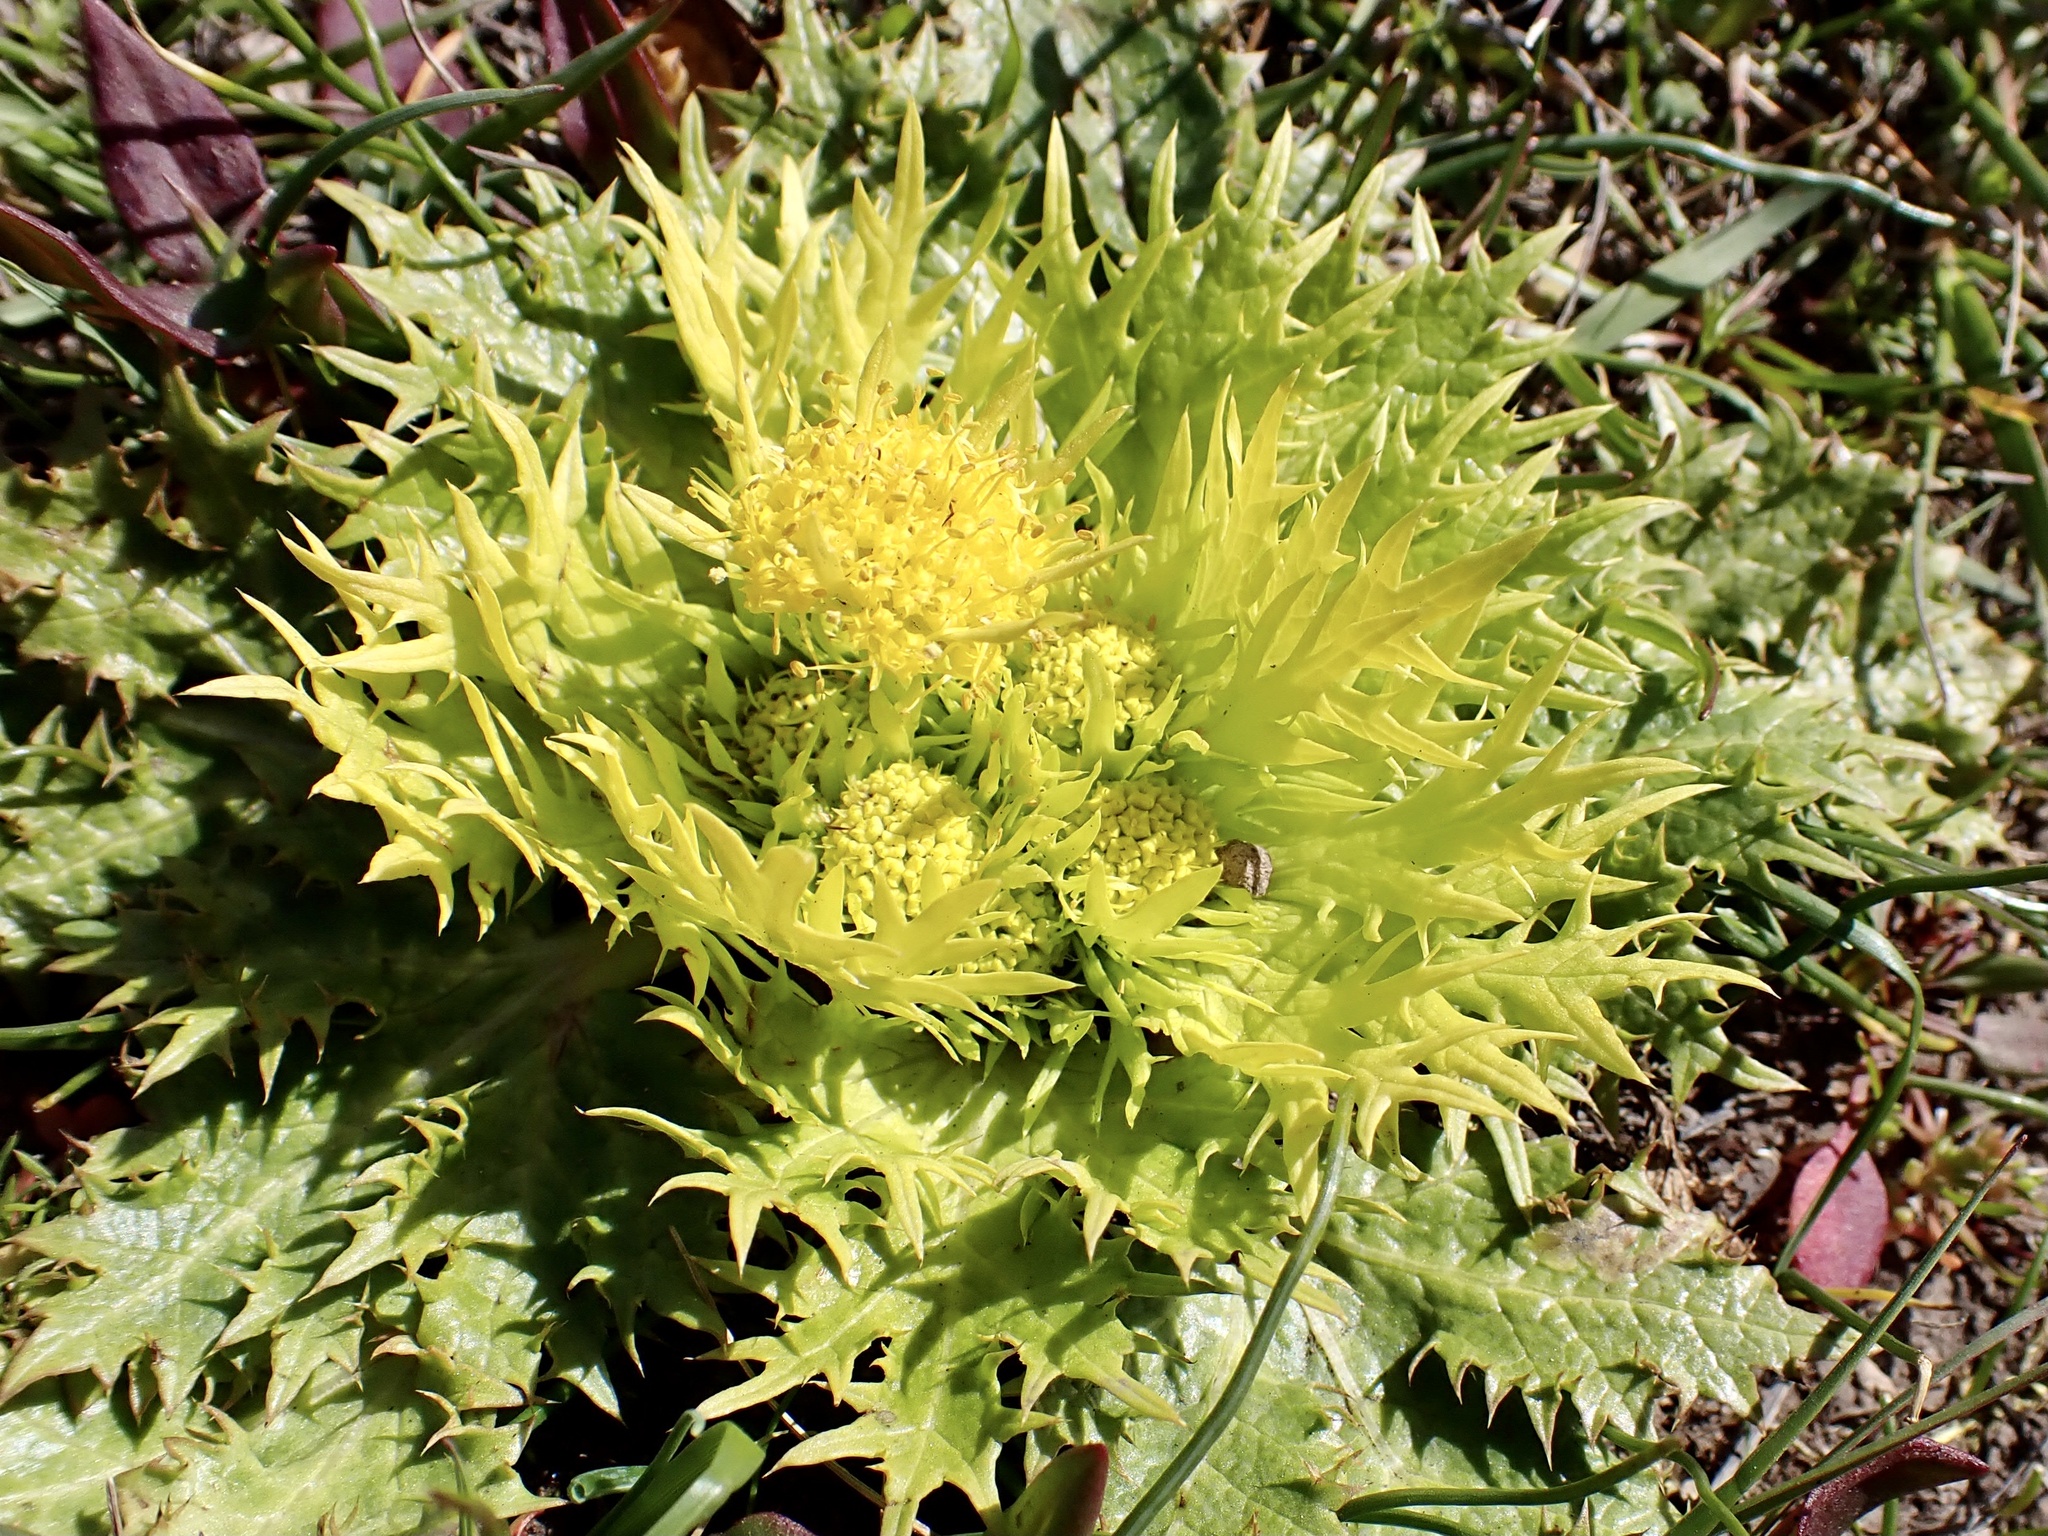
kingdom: Plantae
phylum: Tracheophyta
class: Magnoliopsida
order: Apiales
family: Apiaceae
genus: Sanicula
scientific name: Sanicula arctopoides
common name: Footsteps-of-spring
